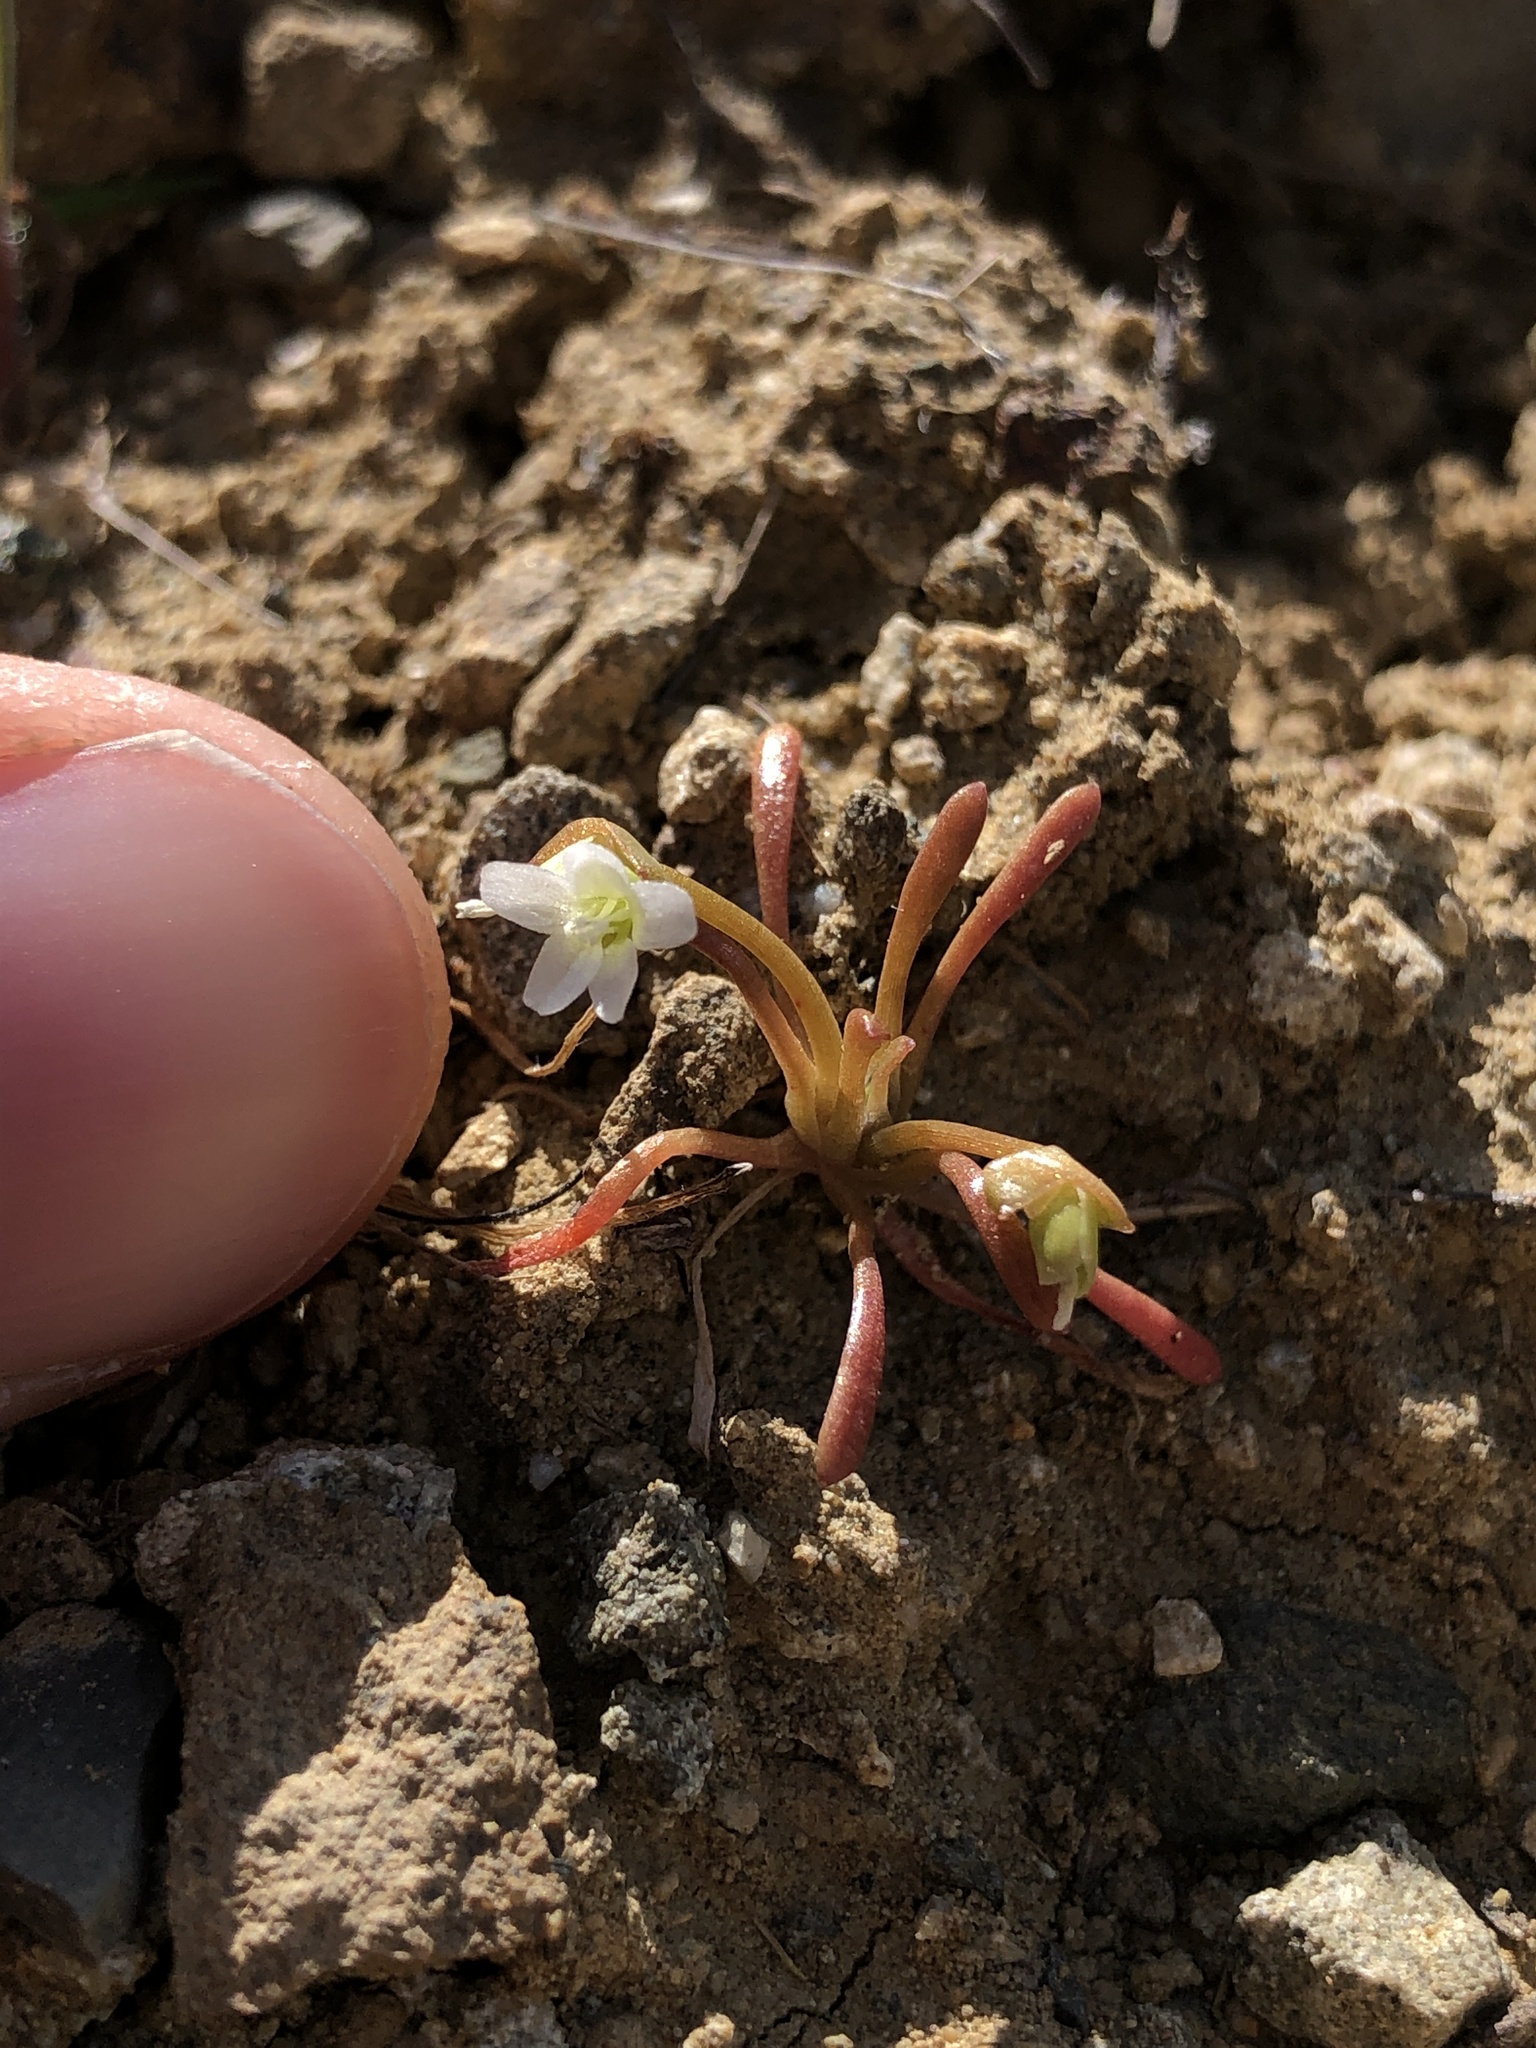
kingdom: Plantae
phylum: Tracheophyta
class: Magnoliopsida
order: Caryophyllales
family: Montiaceae
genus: Claytonia
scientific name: Claytonia parviflora
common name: Indian-lettuce
